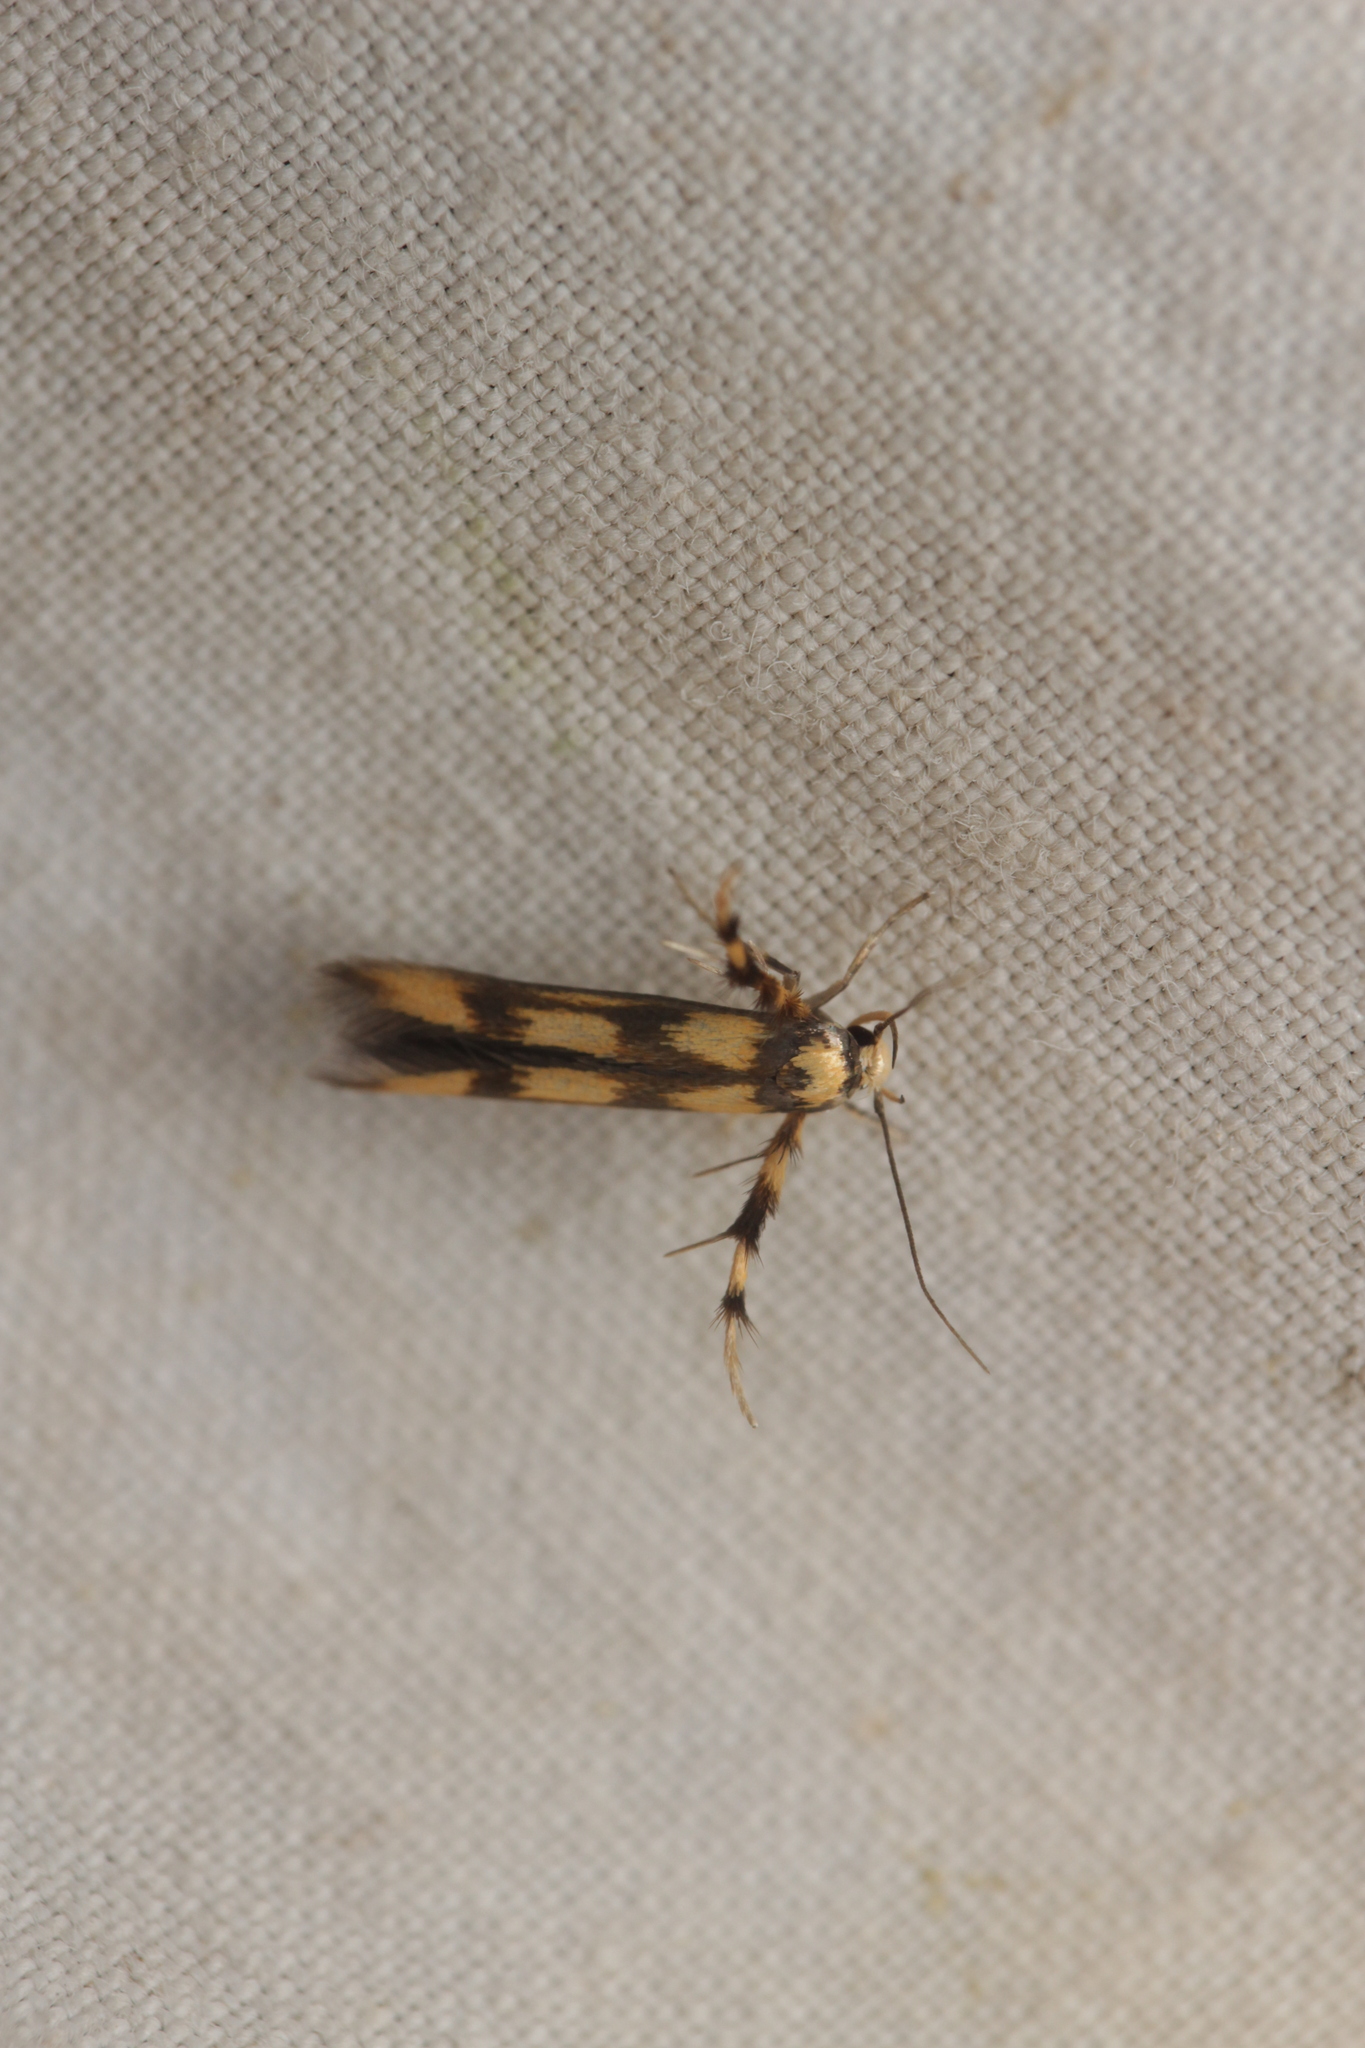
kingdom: Animalia
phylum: Arthropoda
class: Insecta
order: Lepidoptera
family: Stathmopodidae
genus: Stathmopoda
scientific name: Stathmopoda pedella
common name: Alder signal
